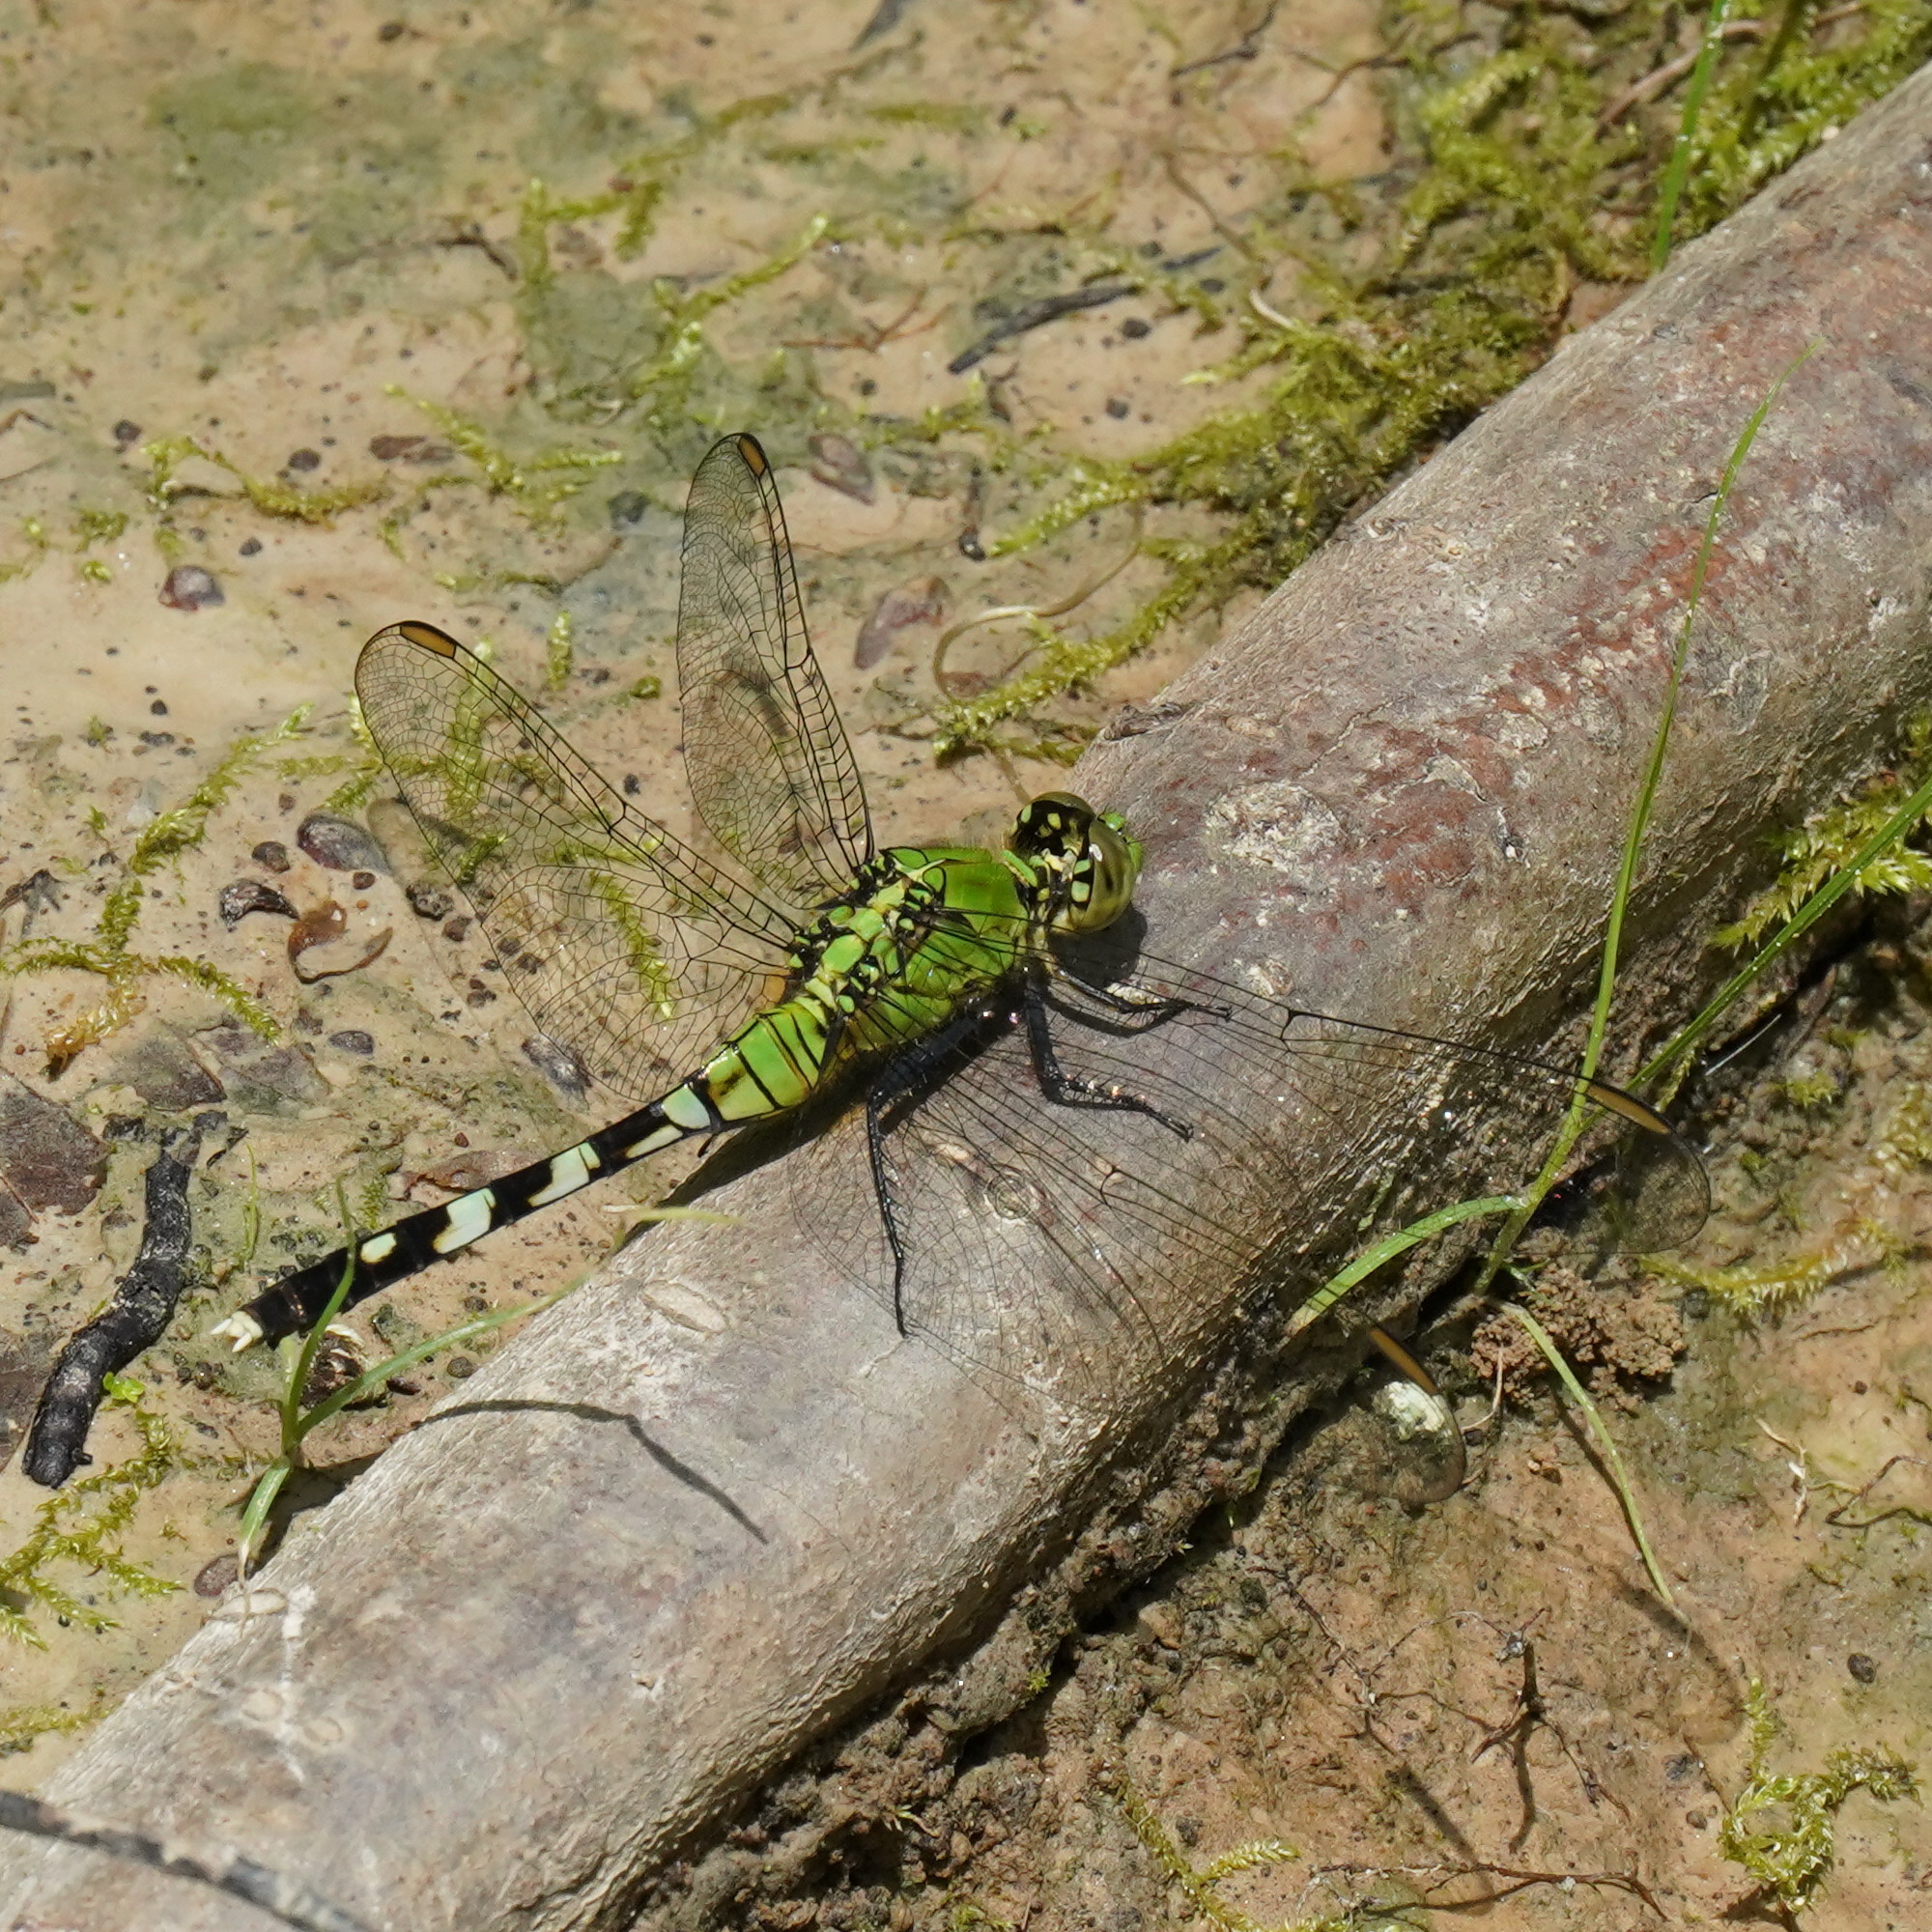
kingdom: Animalia
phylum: Arthropoda
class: Insecta
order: Odonata
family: Libellulidae
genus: Erythemis
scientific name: Erythemis simplicicollis
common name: Eastern pondhawk
